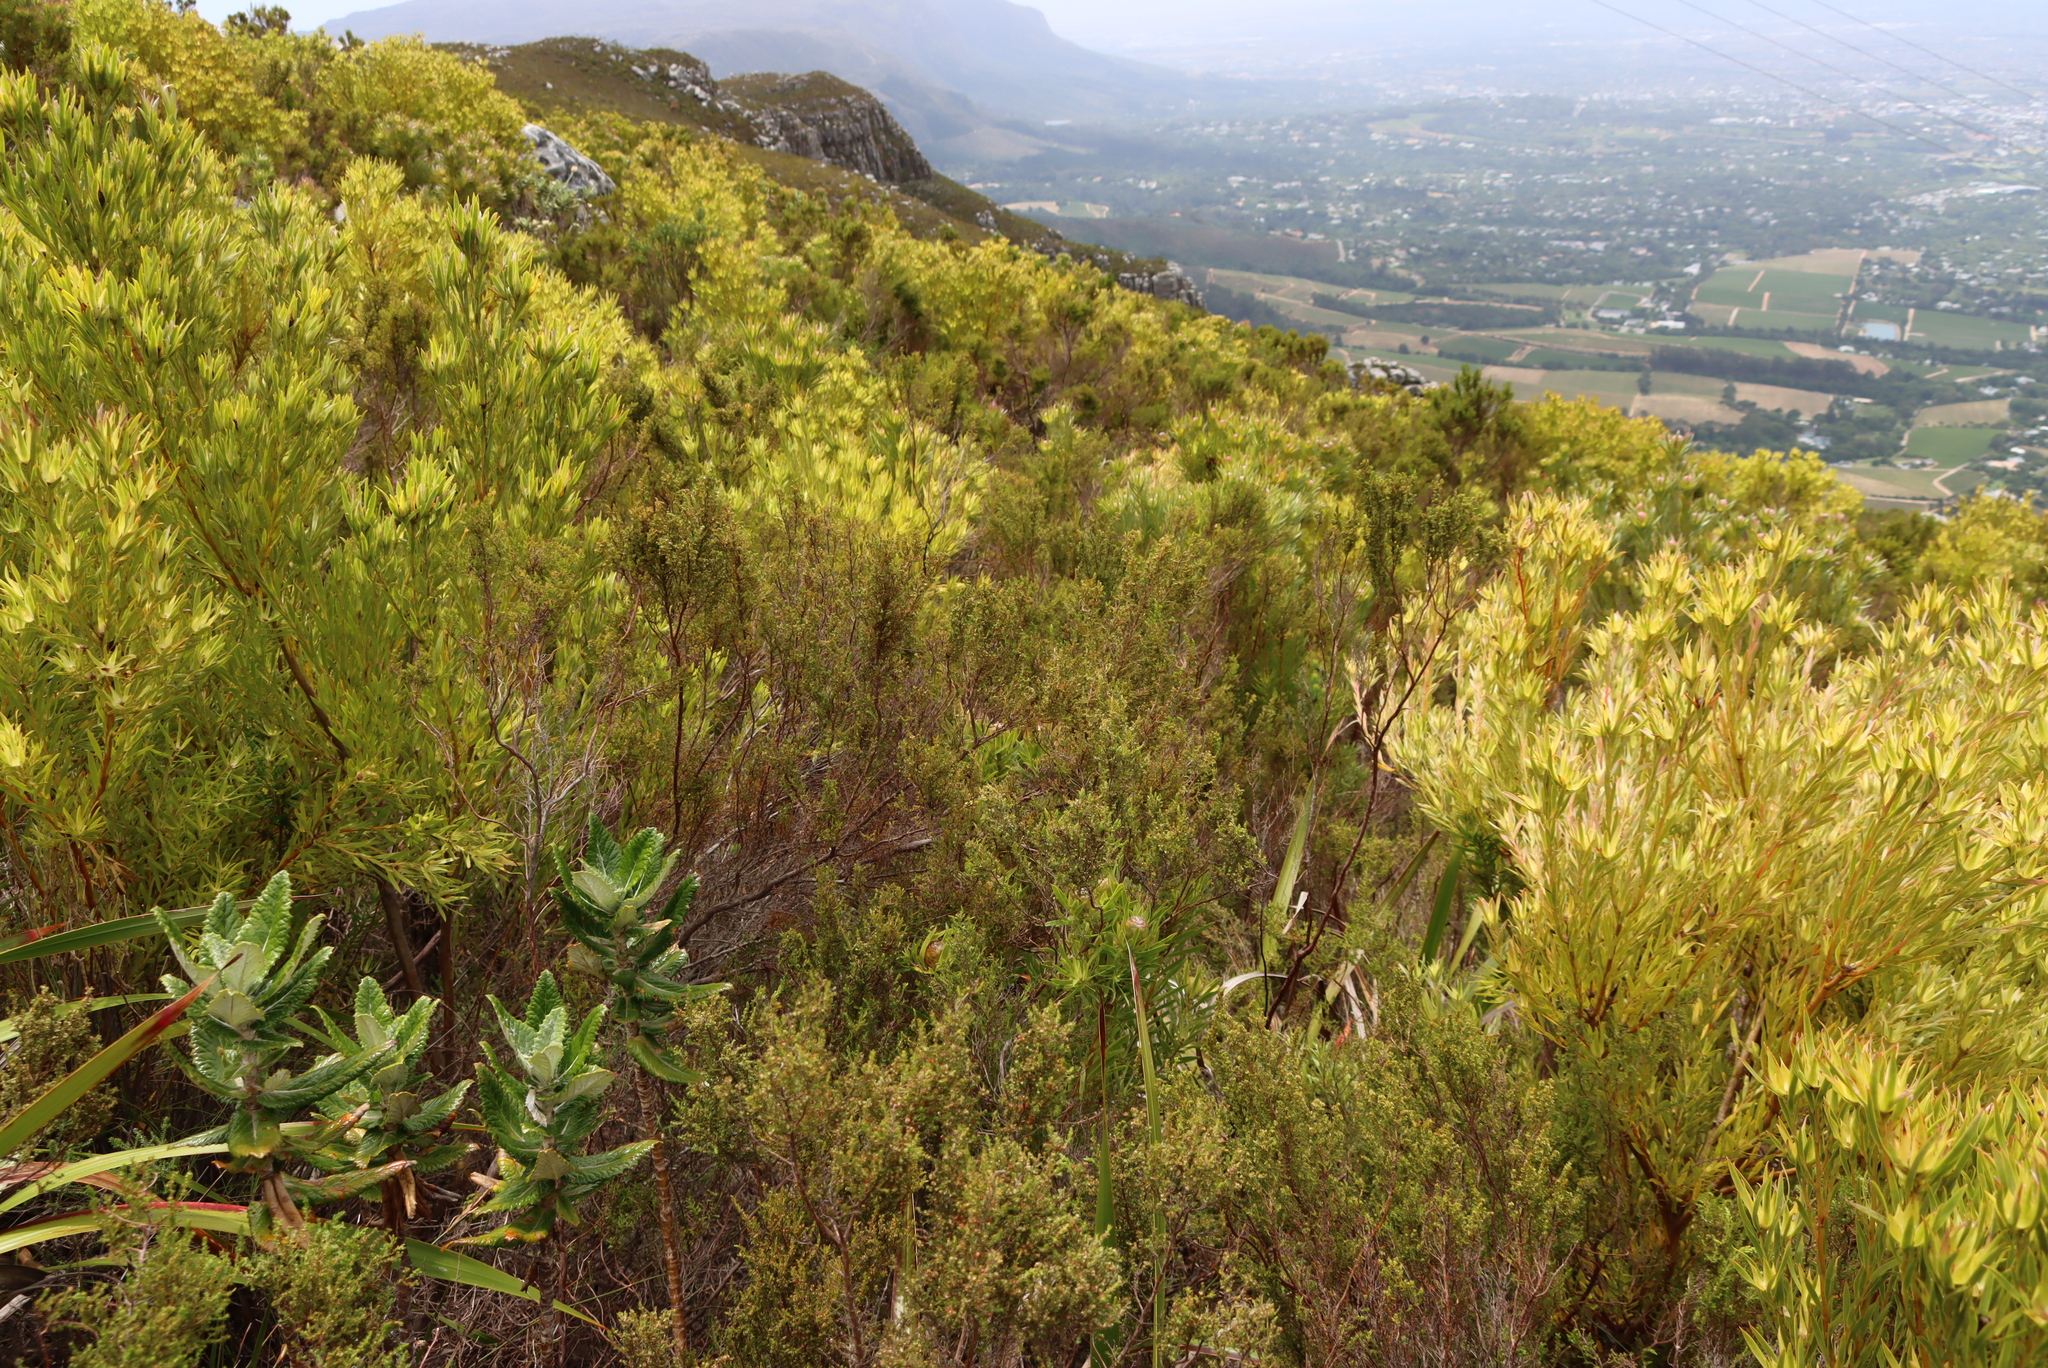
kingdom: Plantae
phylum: Tracheophyta
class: Magnoliopsida
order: Ericales
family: Ericaceae
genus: Erica
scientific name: Erica muscosa
